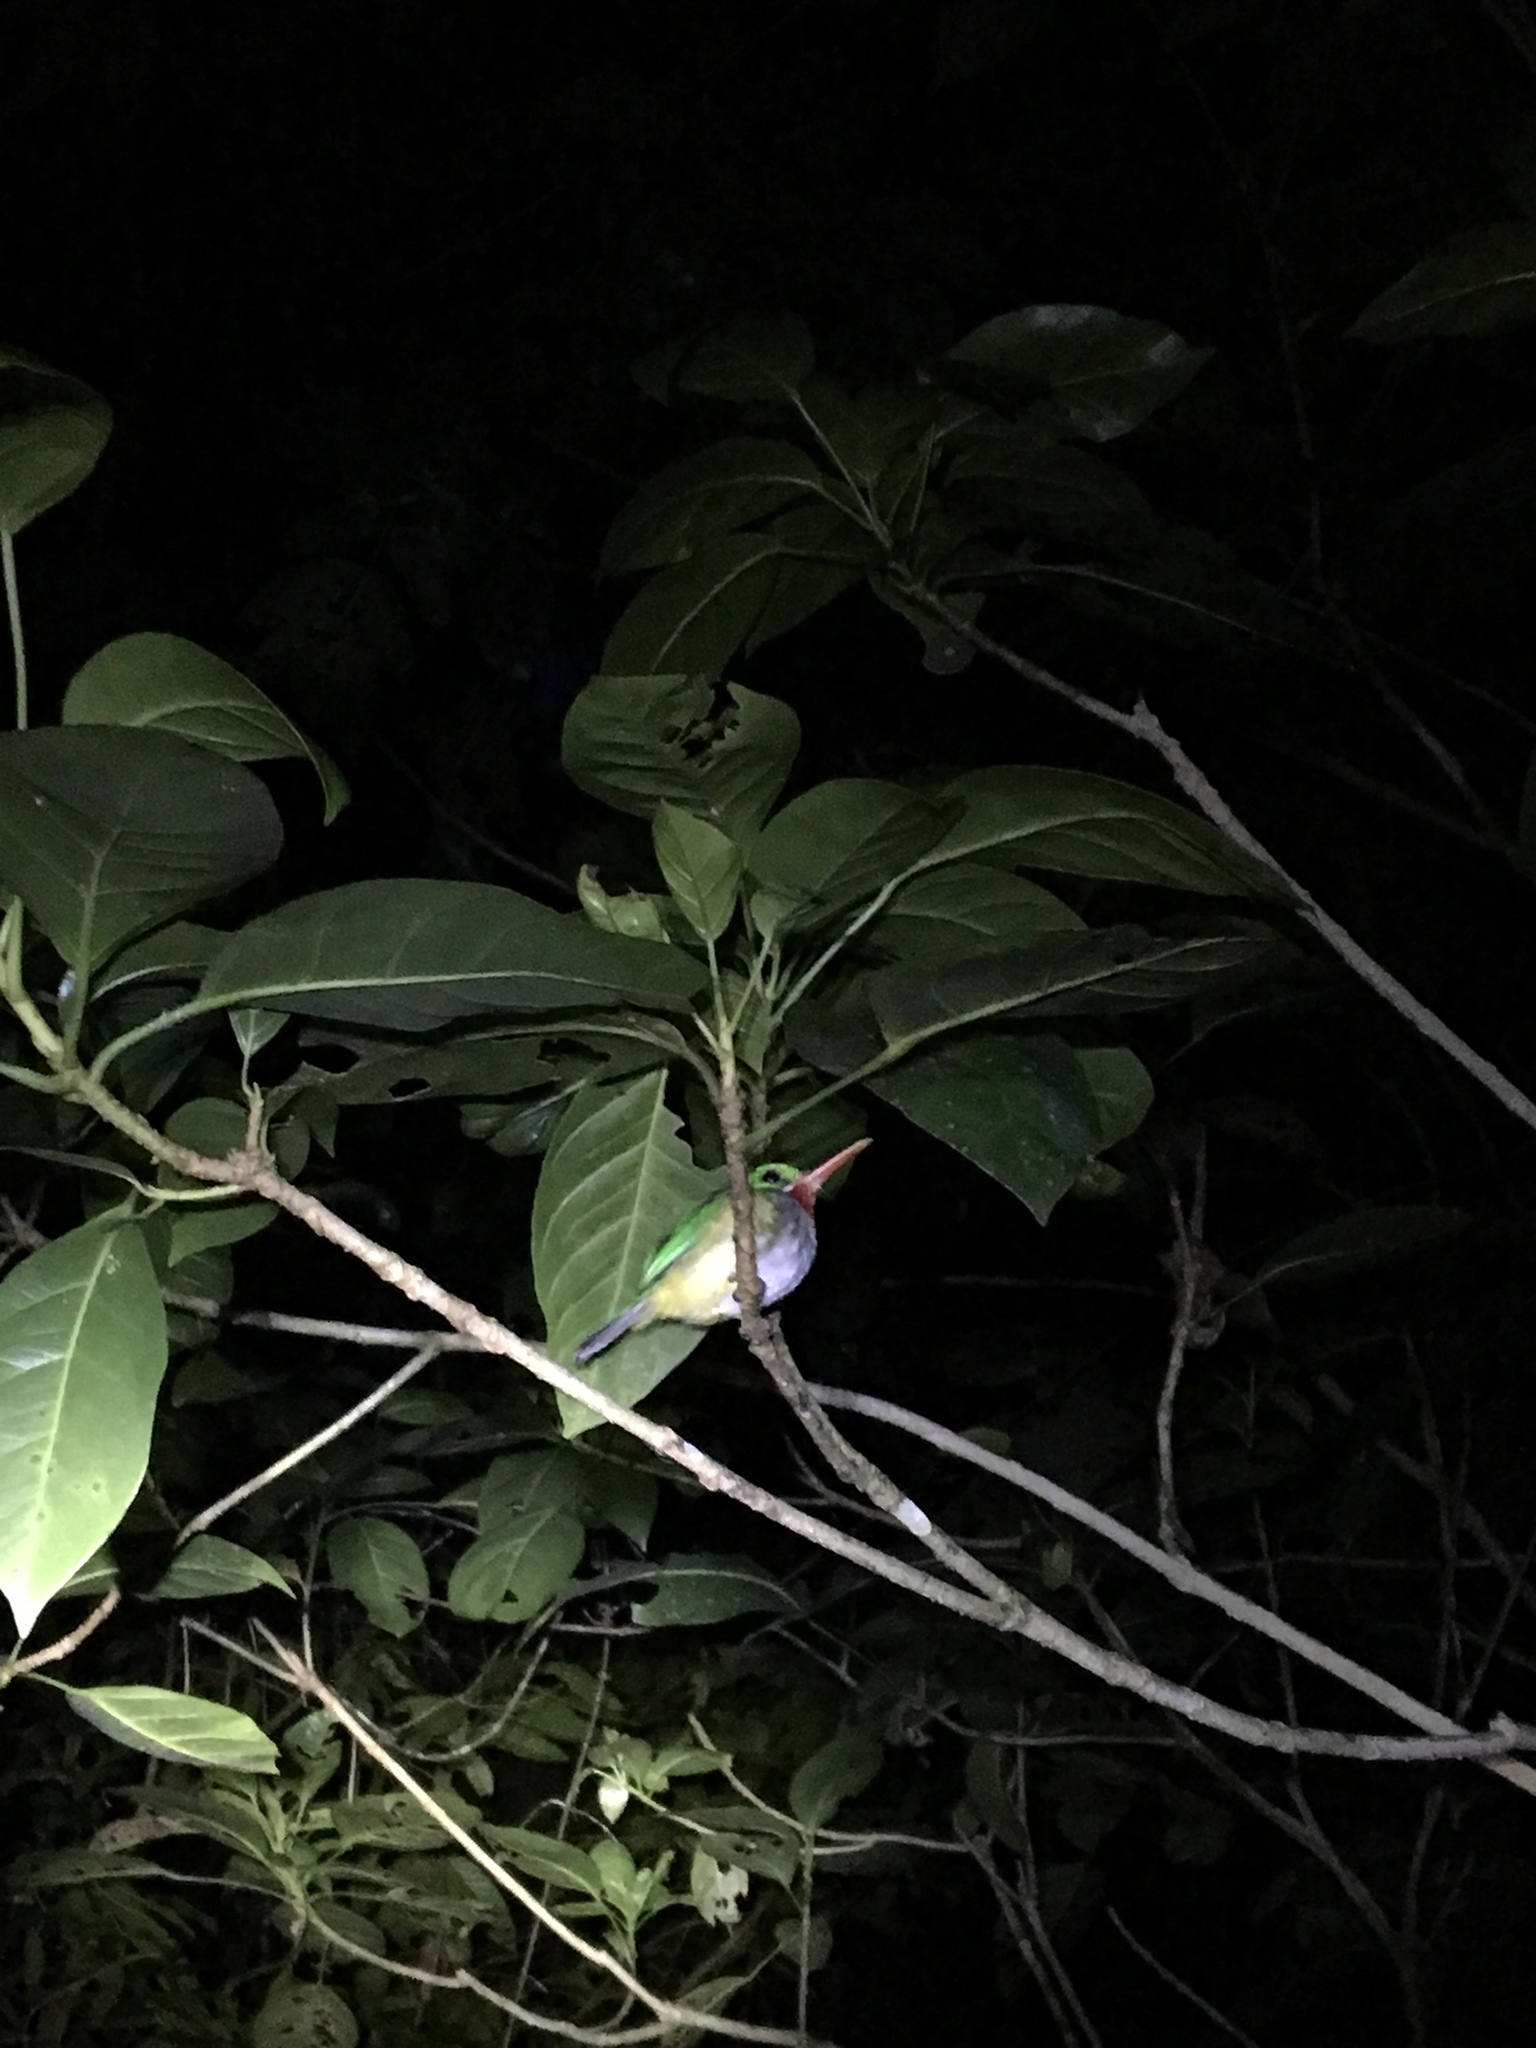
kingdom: Animalia
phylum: Chordata
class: Aves
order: Coraciiformes
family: Todidae
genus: Todus
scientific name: Todus mexicanus
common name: Puerto rican tody
